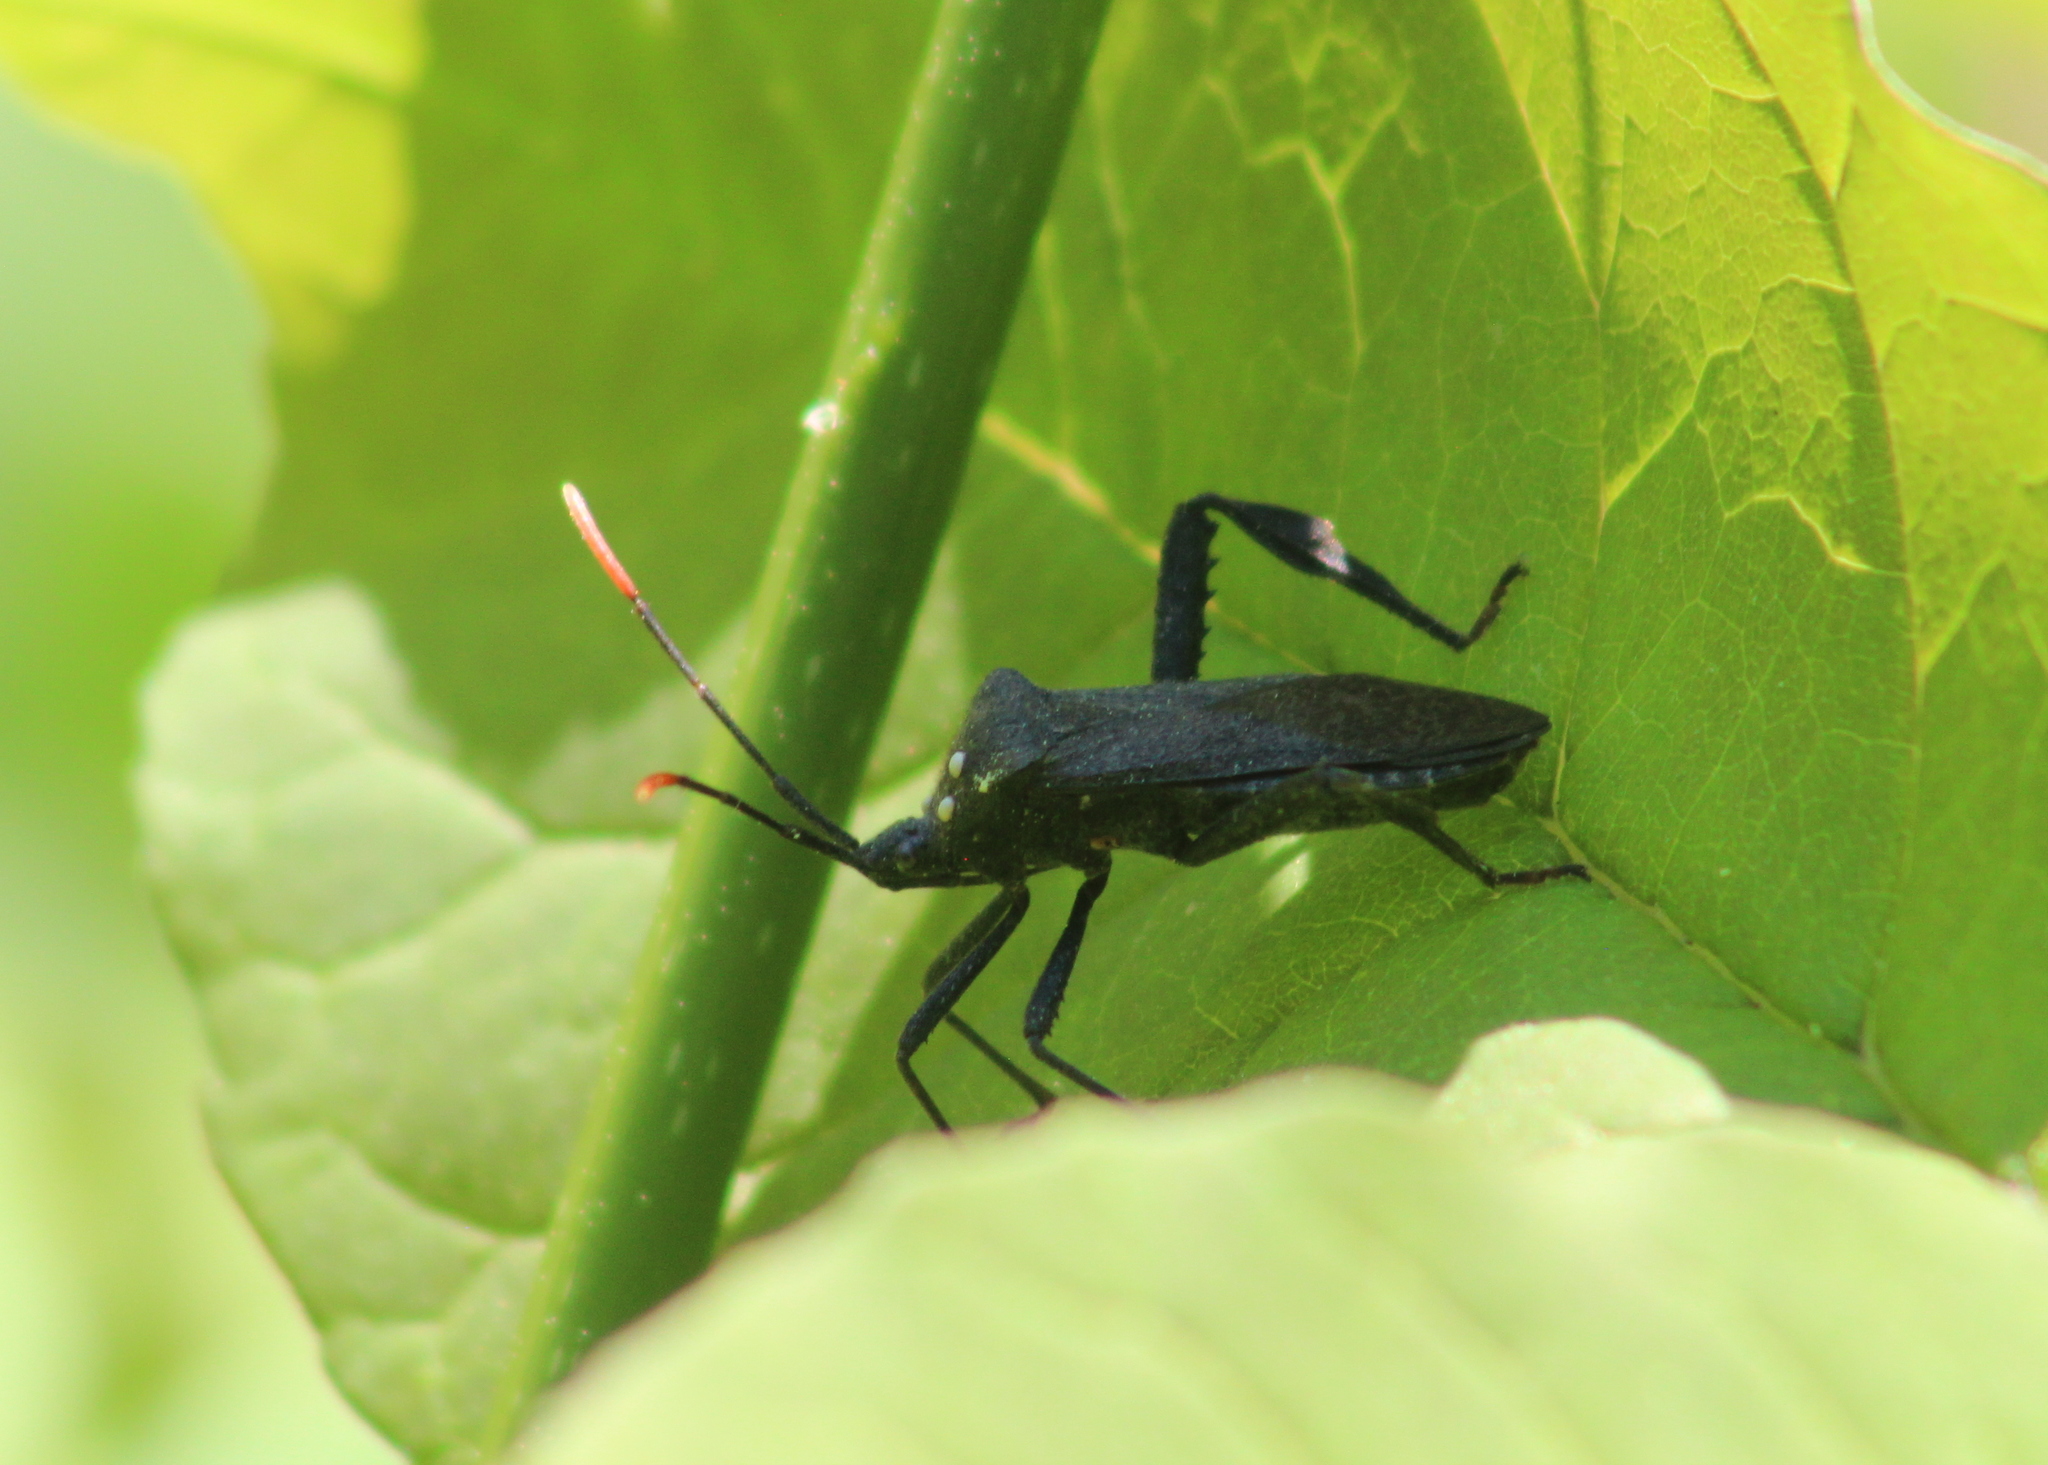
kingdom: Animalia
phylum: Arthropoda
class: Insecta
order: Hemiptera
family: Coreidae
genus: Acanthocephala
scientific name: Acanthocephala terminalis
